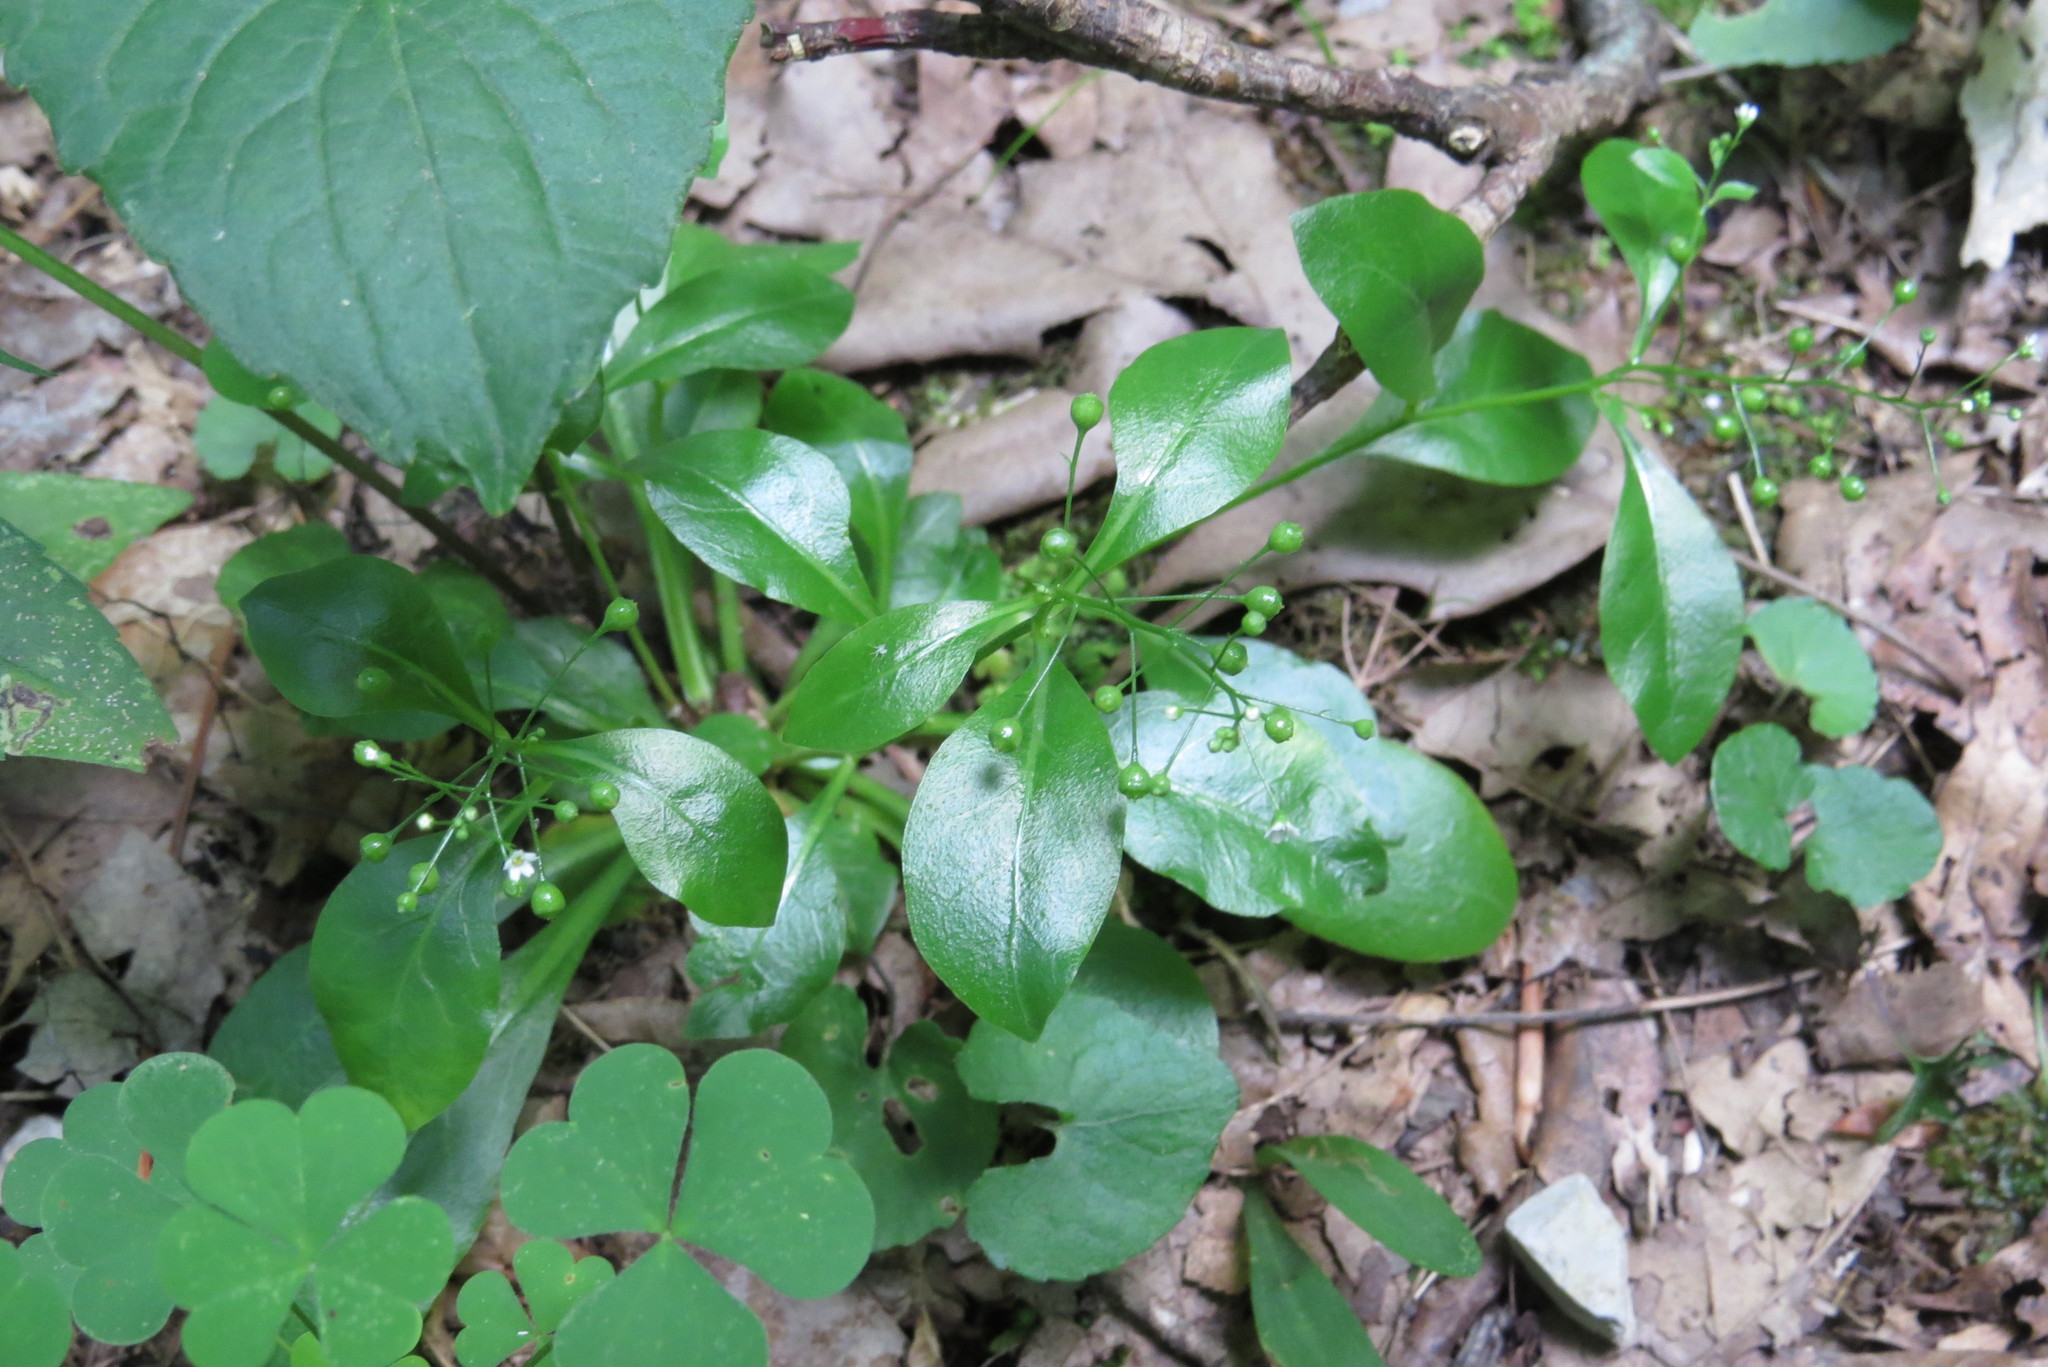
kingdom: Plantae
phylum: Tracheophyta
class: Magnoliopsida
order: Ericales
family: Primulaceae
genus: Samolus
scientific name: Samolus parviflorus
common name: False water pimpernel
